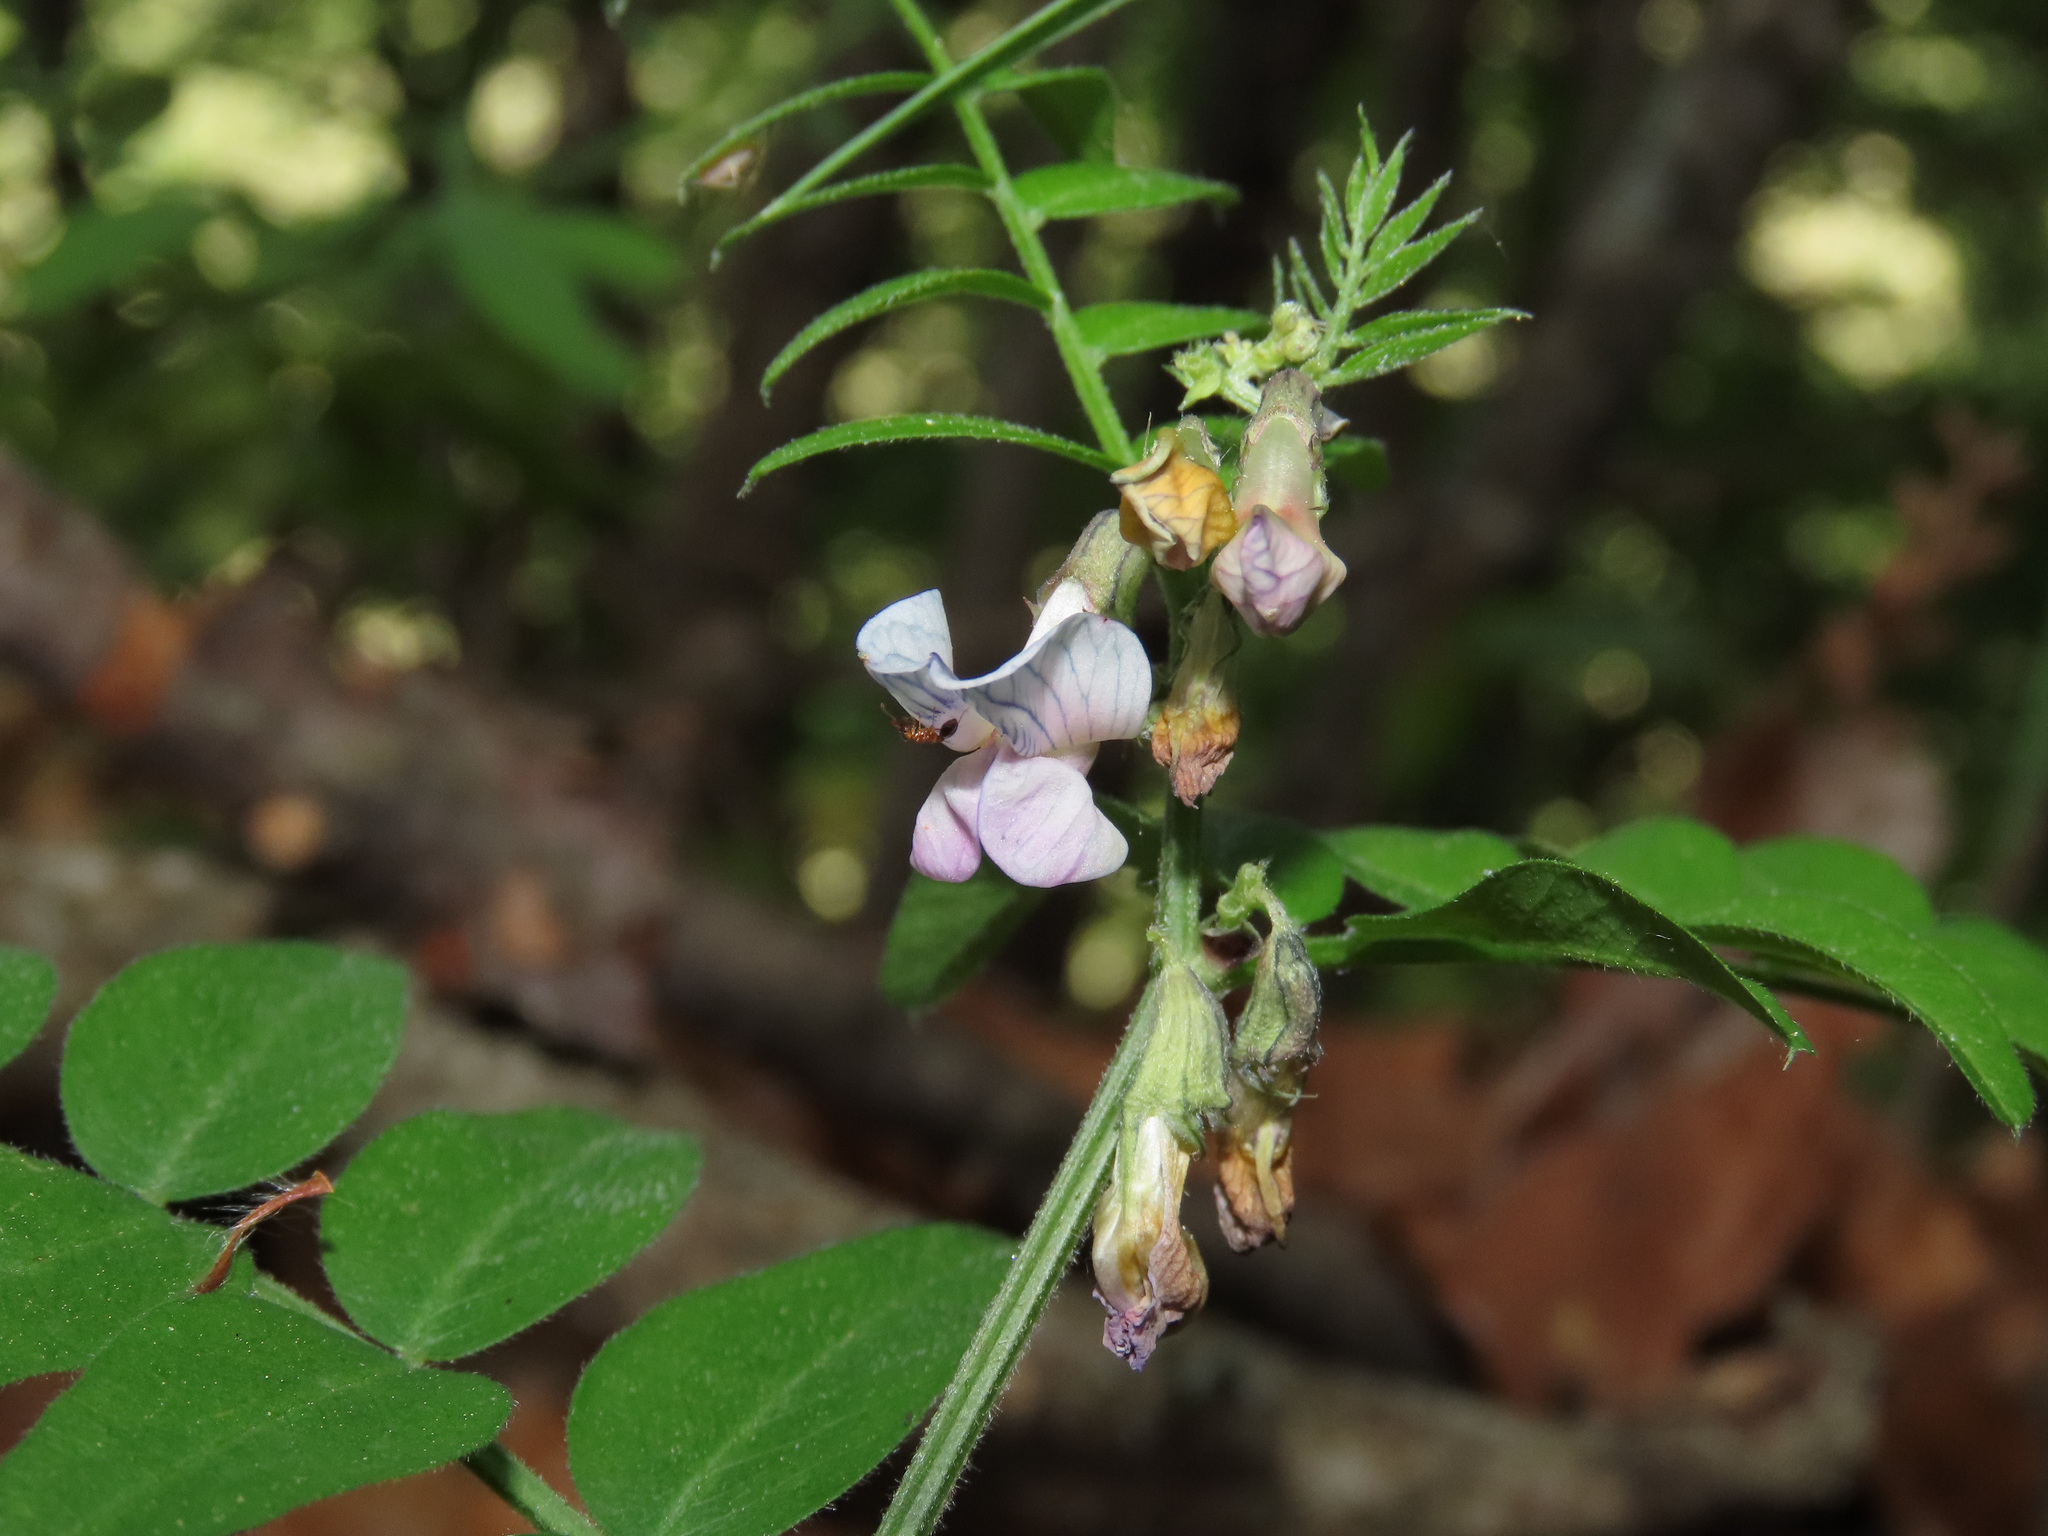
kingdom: Plantae
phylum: Tracheophyta
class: Magnoliopsida
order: Fabales
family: Fabaceae
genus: Vicia
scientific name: Vicia sepium
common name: Bush vetch
